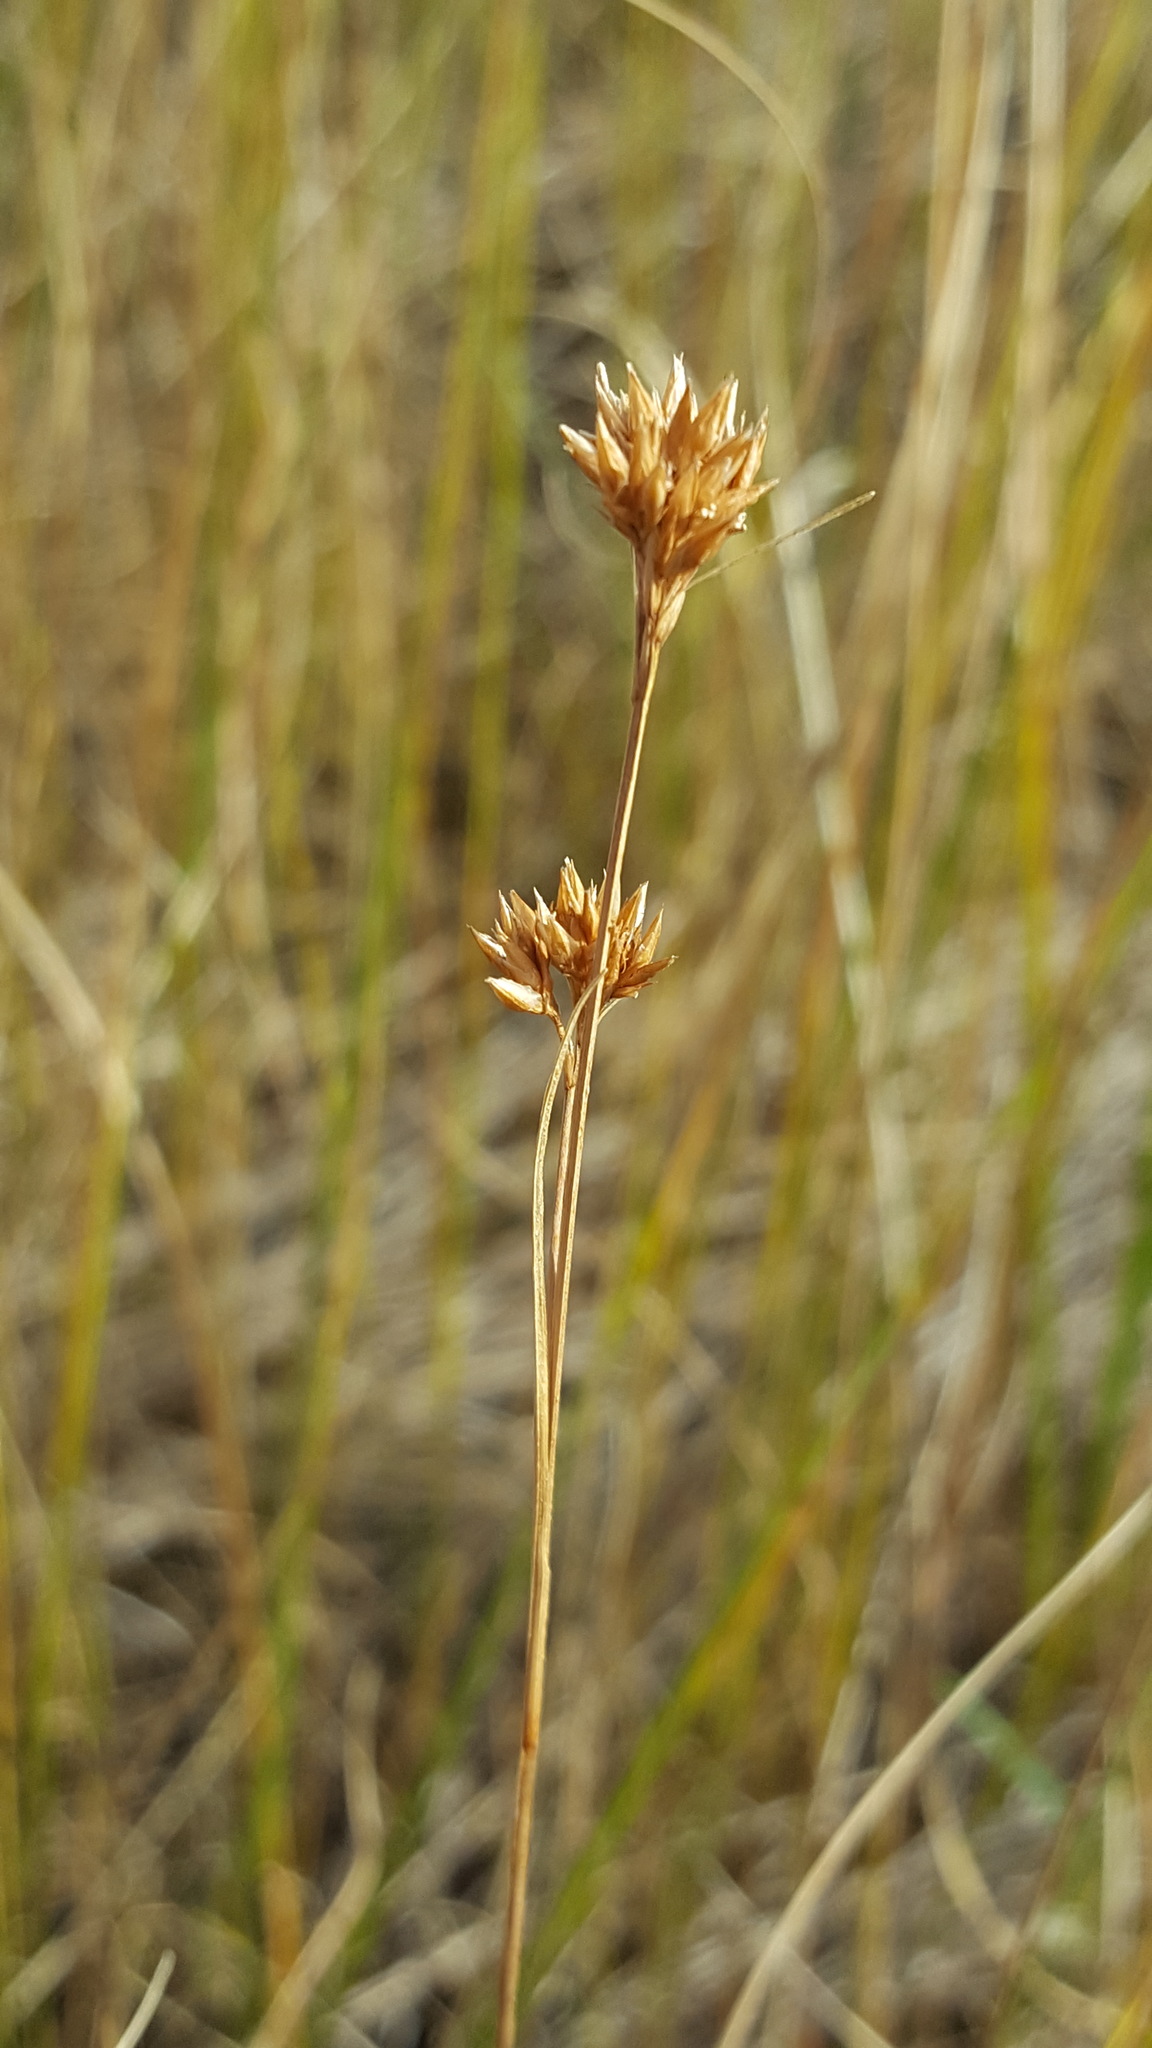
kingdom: Plantae
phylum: Tracheophyta
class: Liliopsida
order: Poales
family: Cyperaceae
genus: Rhynchospora
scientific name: Rhynchospora alba
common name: White beak-sedge
